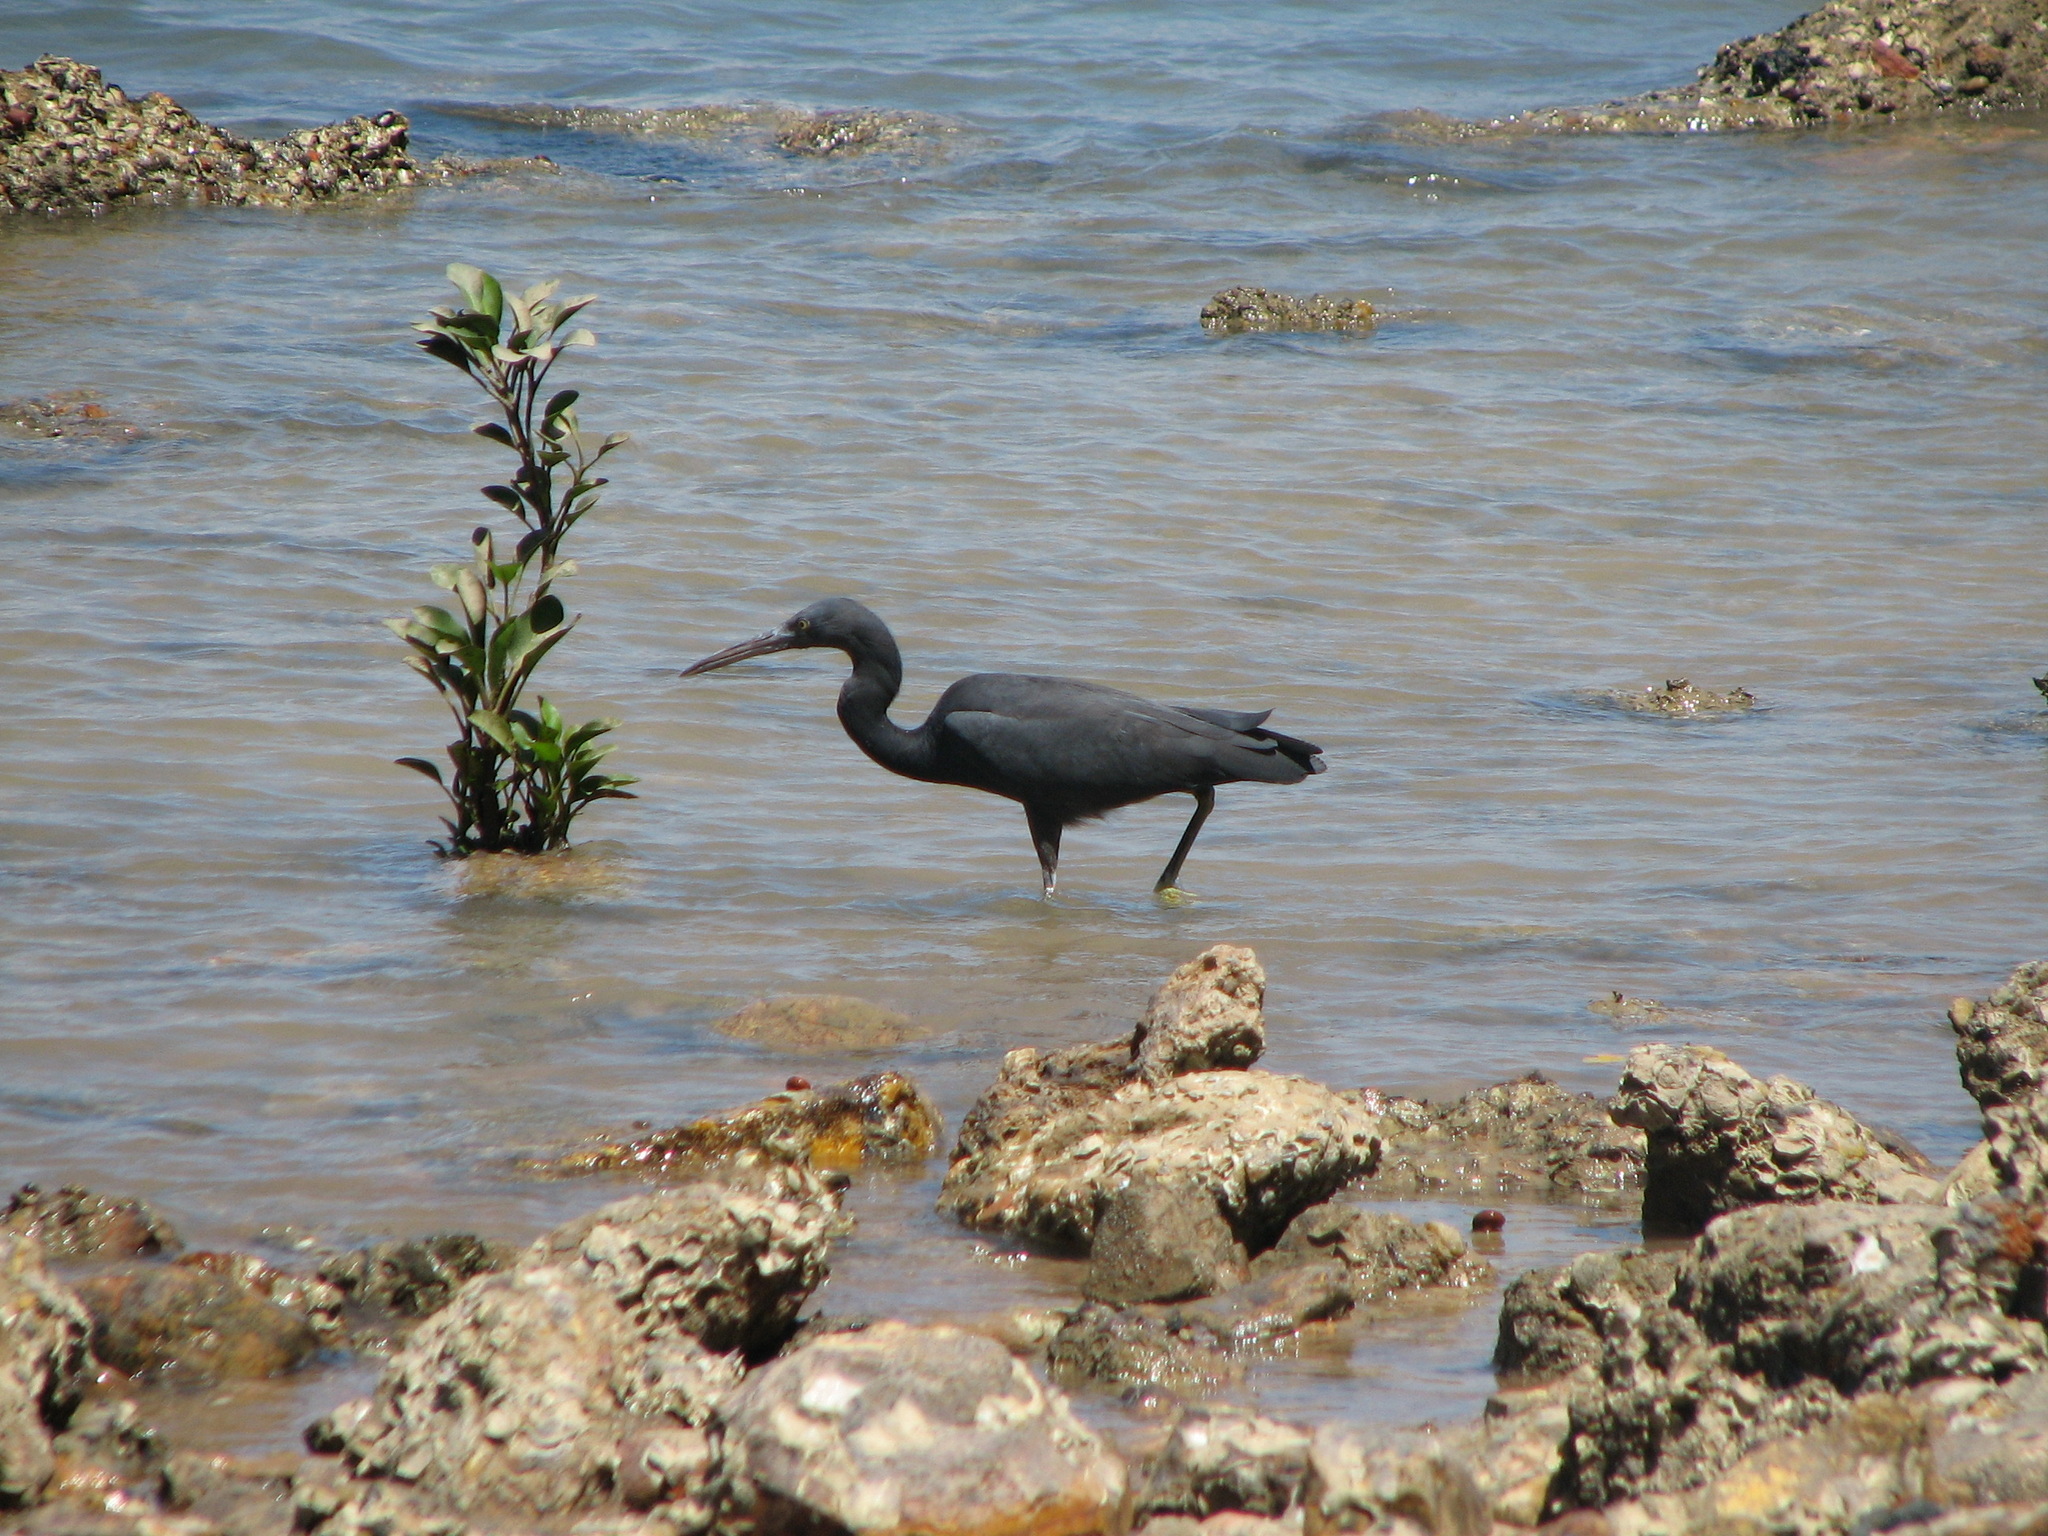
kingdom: Animalia
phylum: Chordata
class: Aves
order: Pelecaniformes
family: Ardeidae
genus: Egretta
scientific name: Egretta sacra
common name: Pacific reef heron
